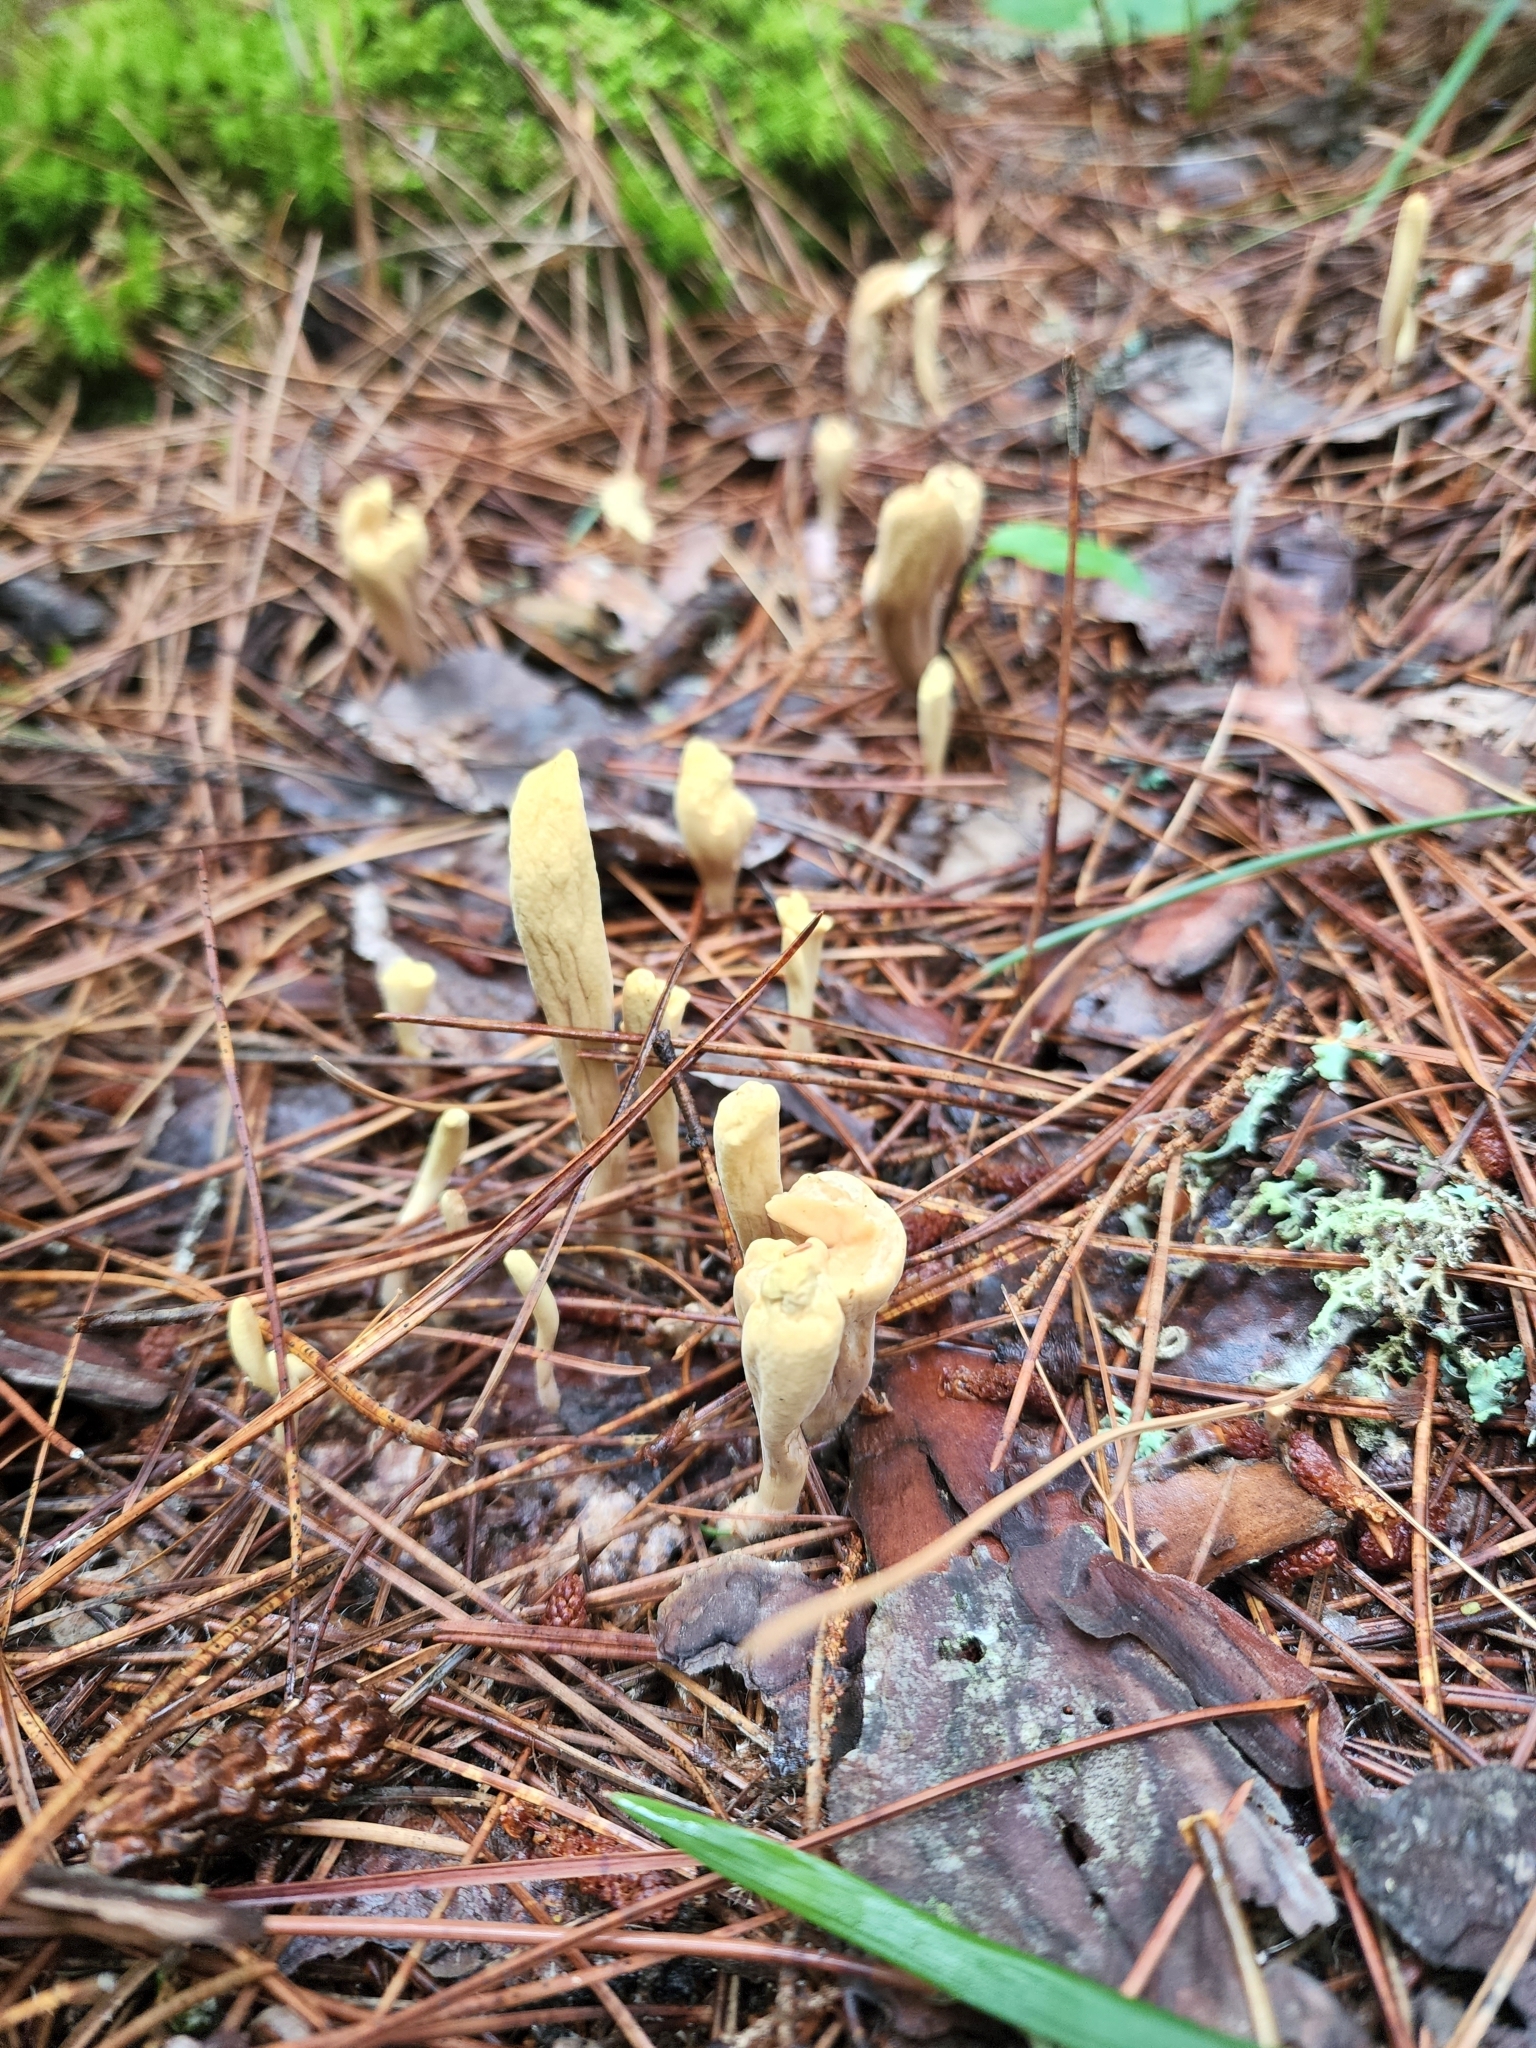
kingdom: Fungi
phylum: Basidiomycota
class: Agaricomycetes
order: Gomphales
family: Clavariadelphaceae
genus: Clavariadelphus
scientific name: Clavariadelphus ligula
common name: Ochre club
